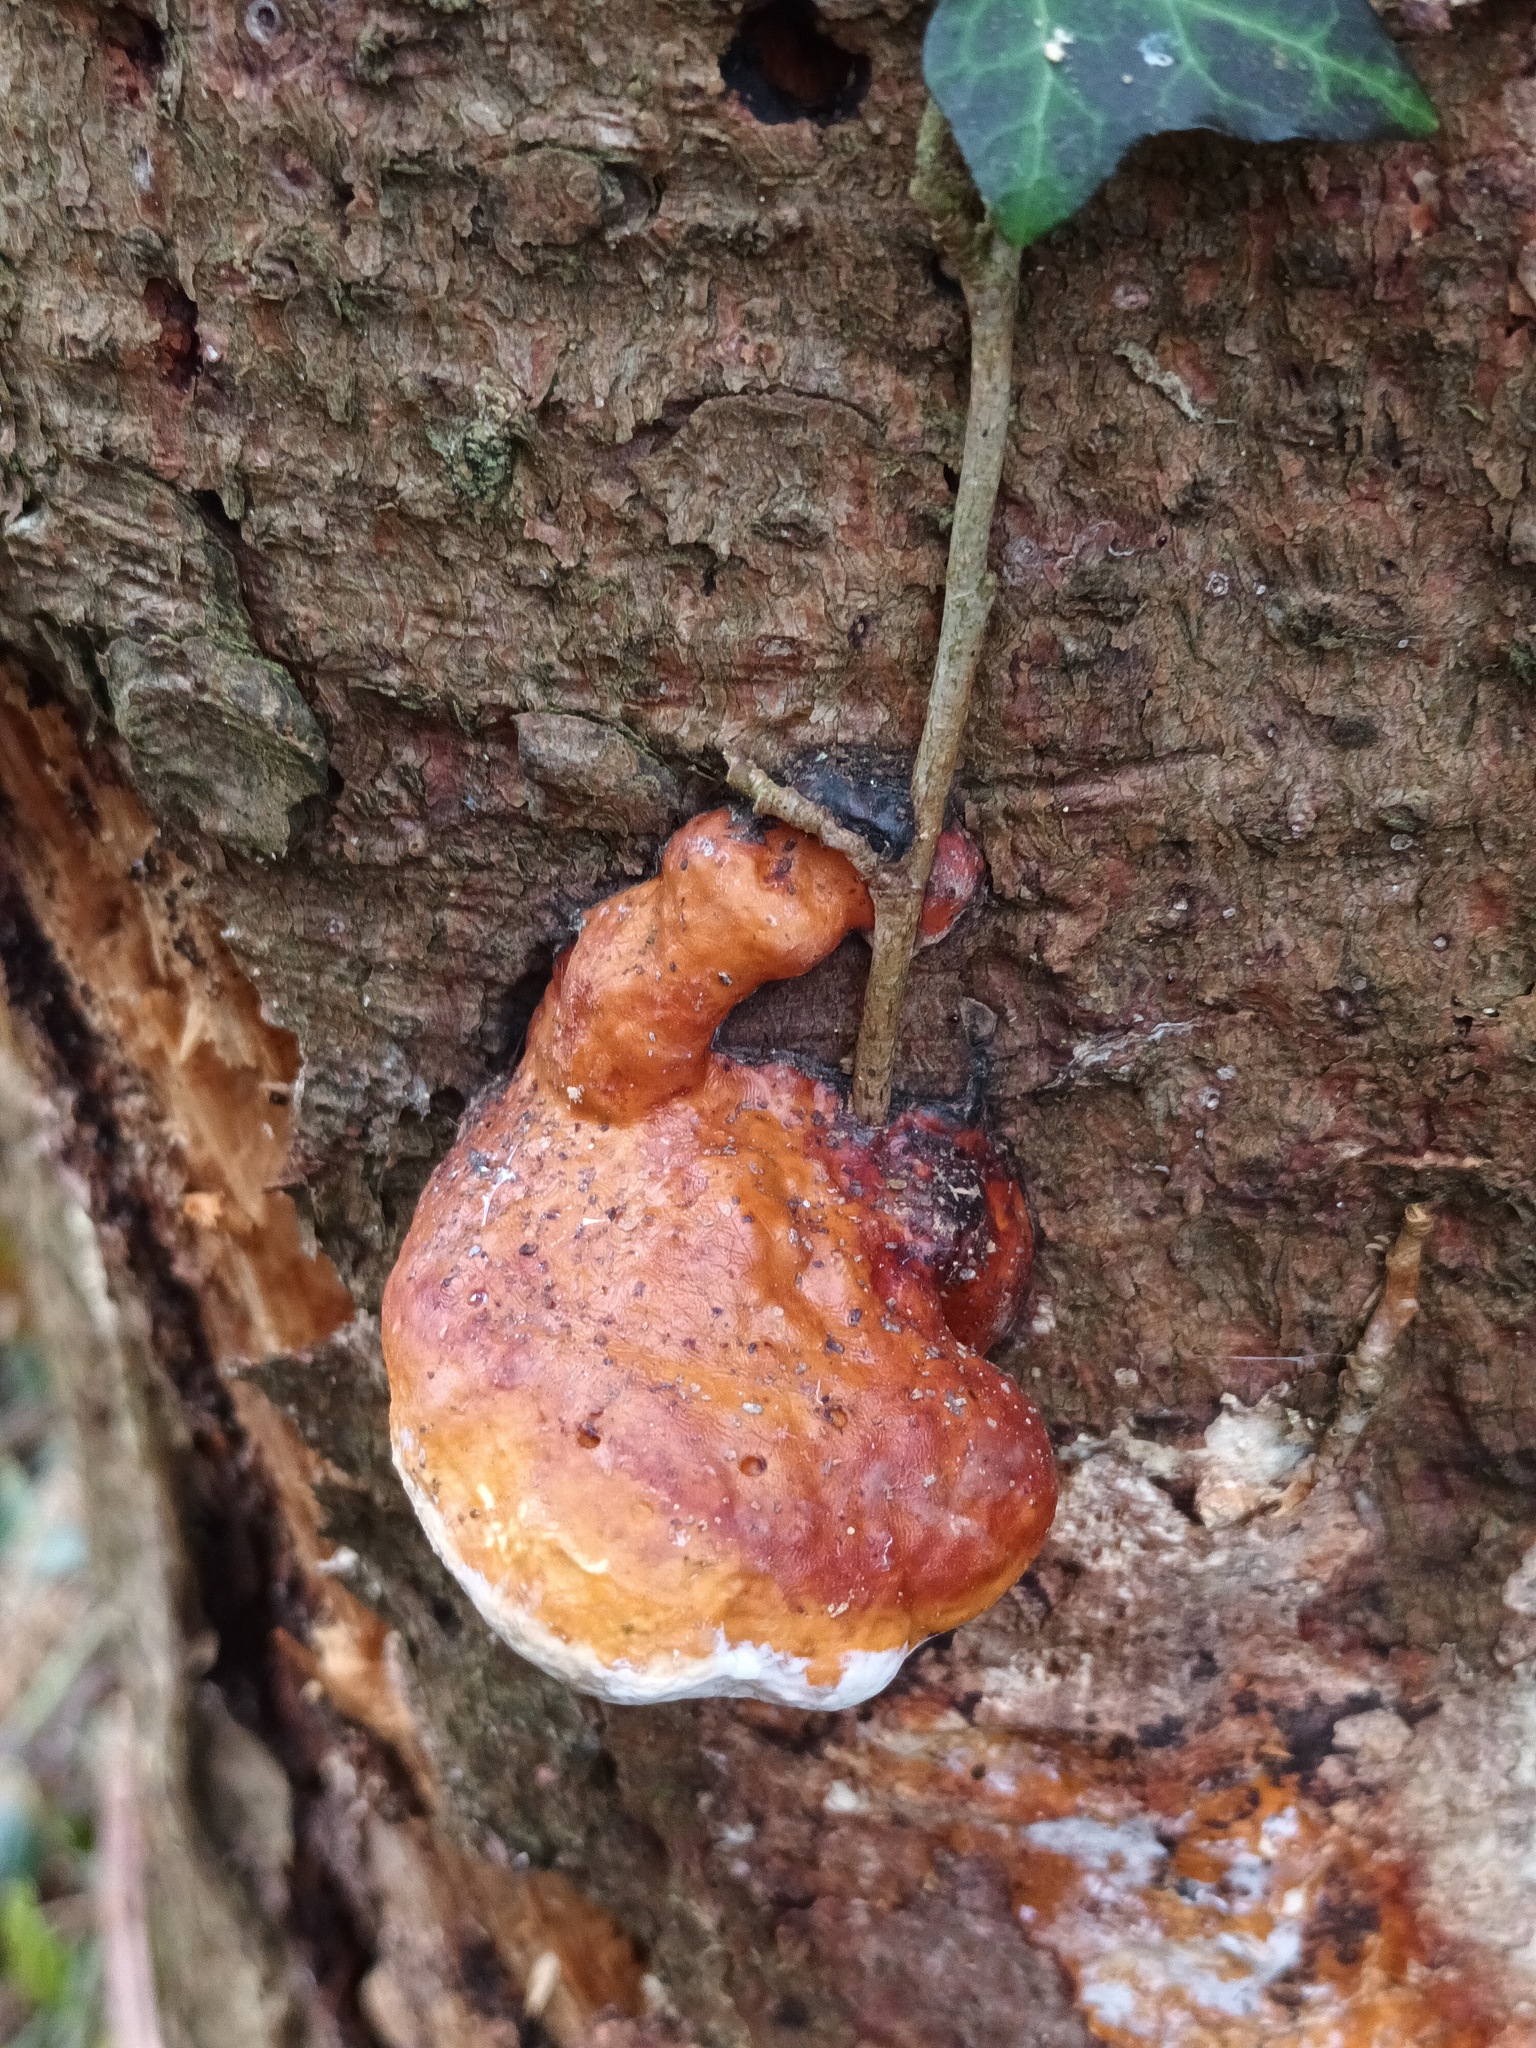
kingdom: Fungi
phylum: Basidiomycota
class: Agaricomycetes
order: Polyporales
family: Fomitopsidaceae
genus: Fomitopsis
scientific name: Fomitopsis pinicola
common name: Red-belted bracket
